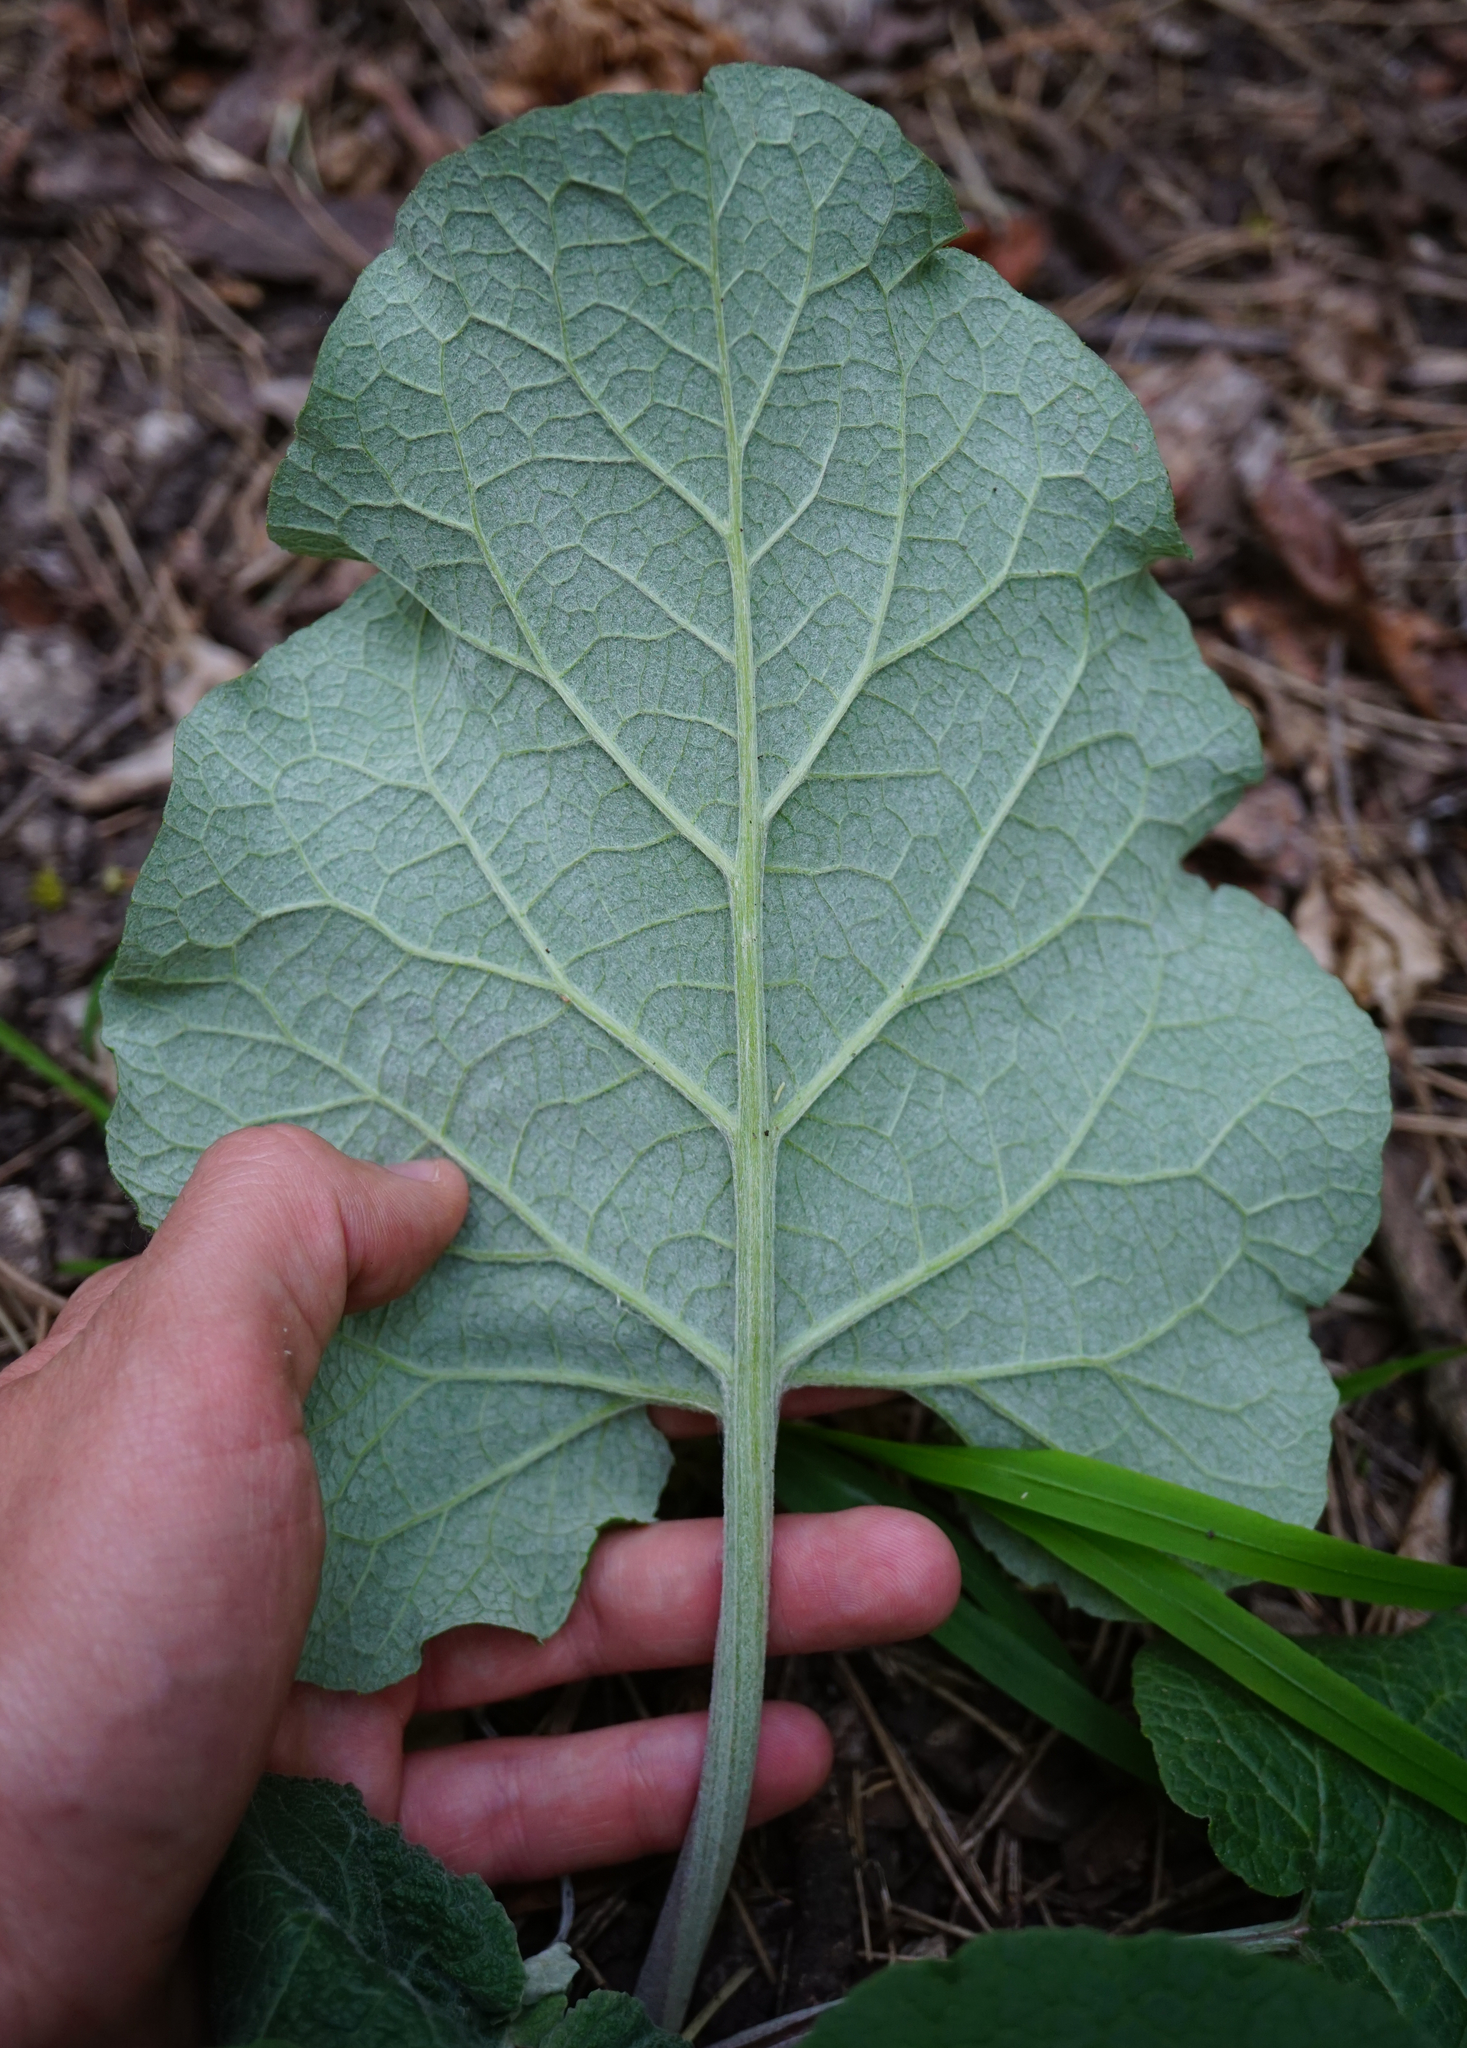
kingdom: Plantae
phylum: Tracheophyta
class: Magnoliopsida
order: Asterales
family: Asteraceae
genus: Arctium
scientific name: Arctium
